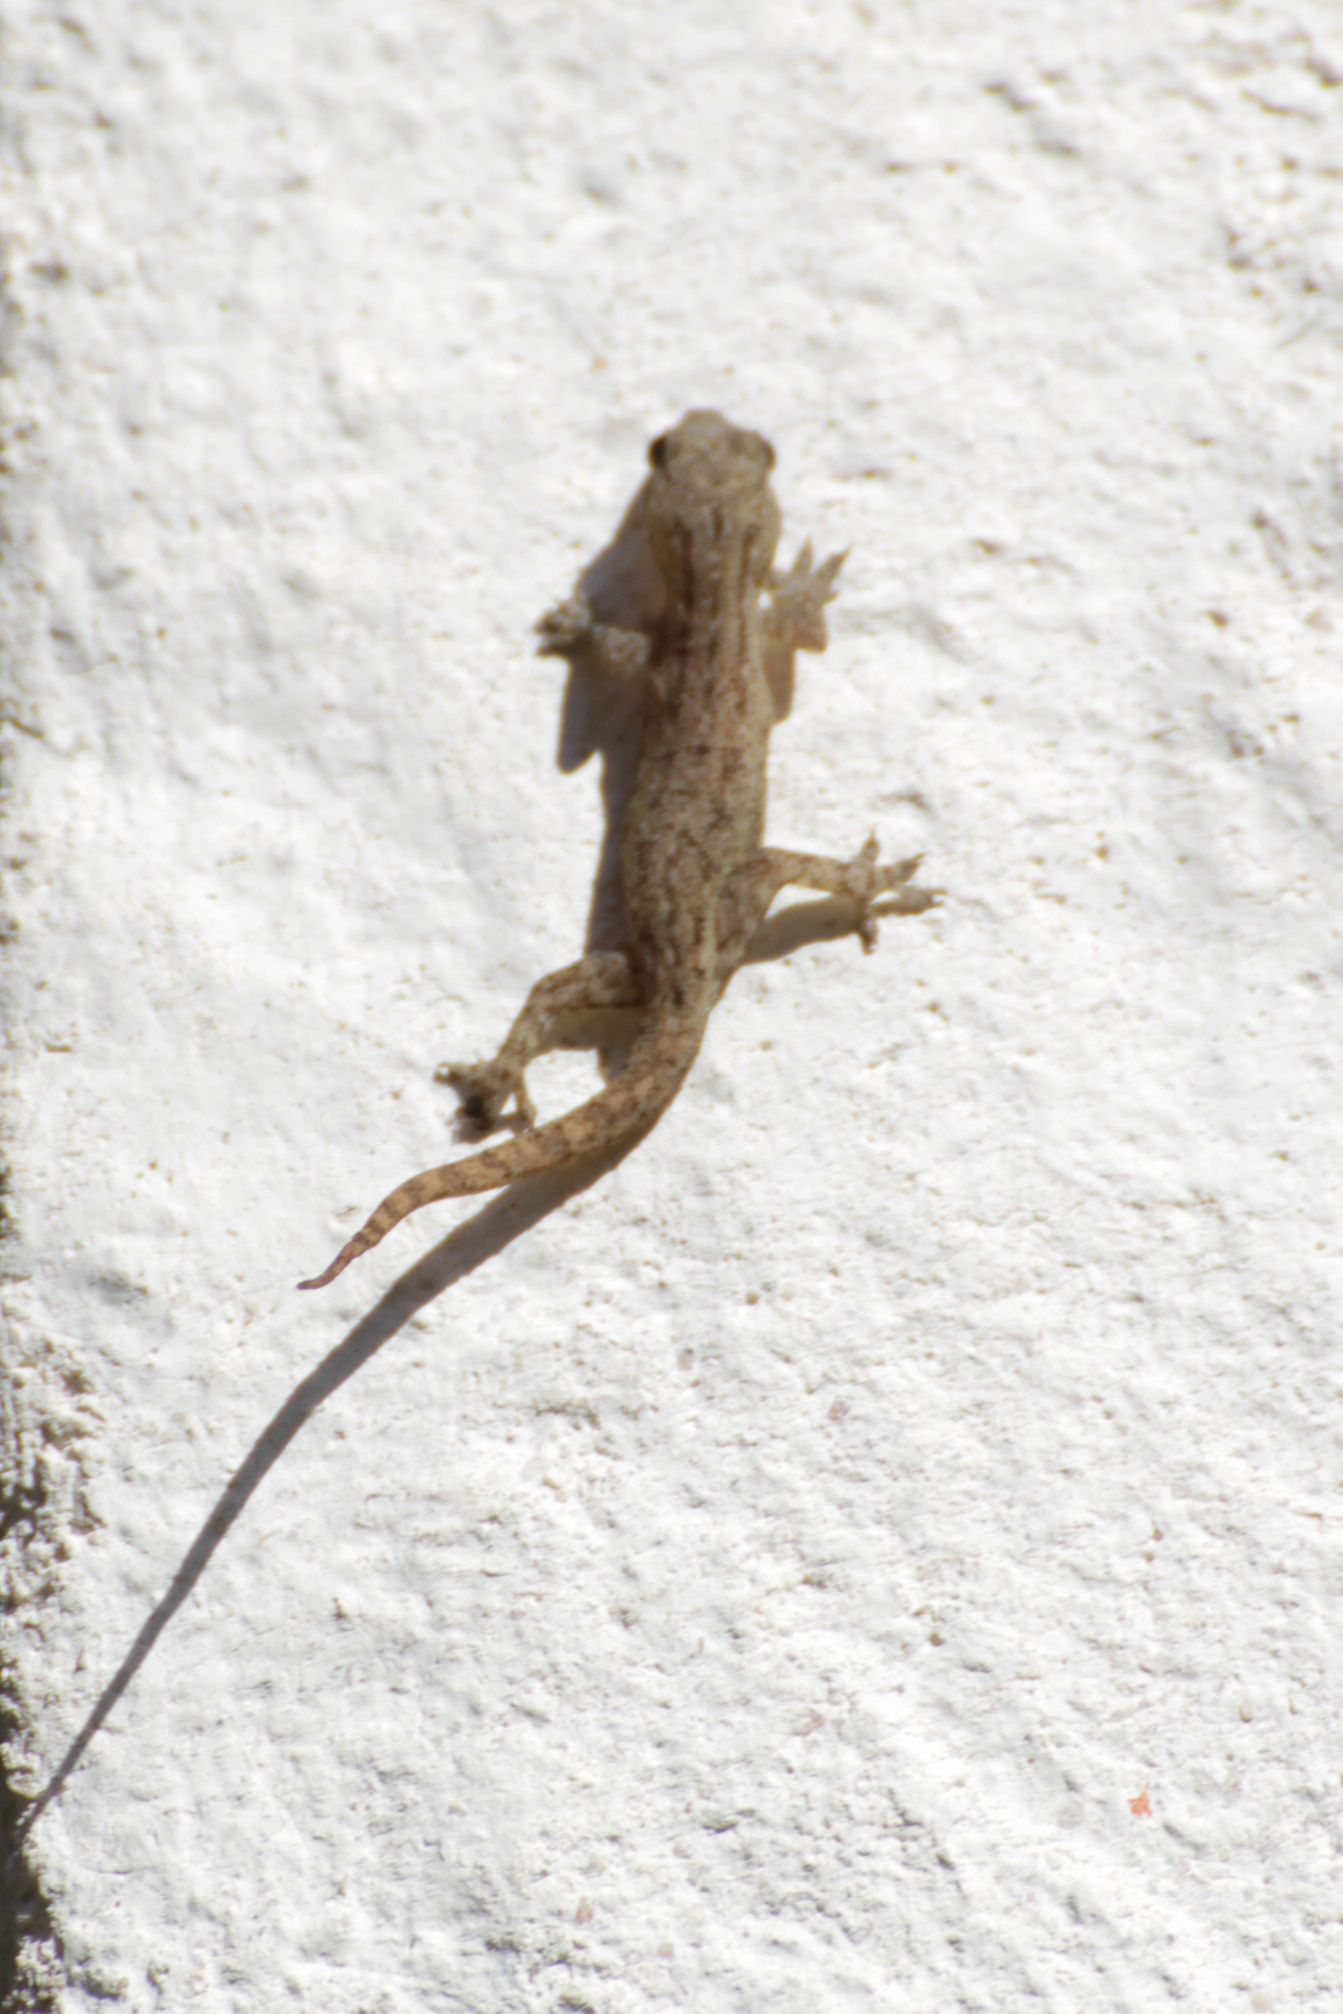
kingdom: Animalia
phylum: Chordata
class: Squamata
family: Gekkonidae
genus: Hemidactylus
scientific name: Hemidactylus frenatus
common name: Common house gecko
